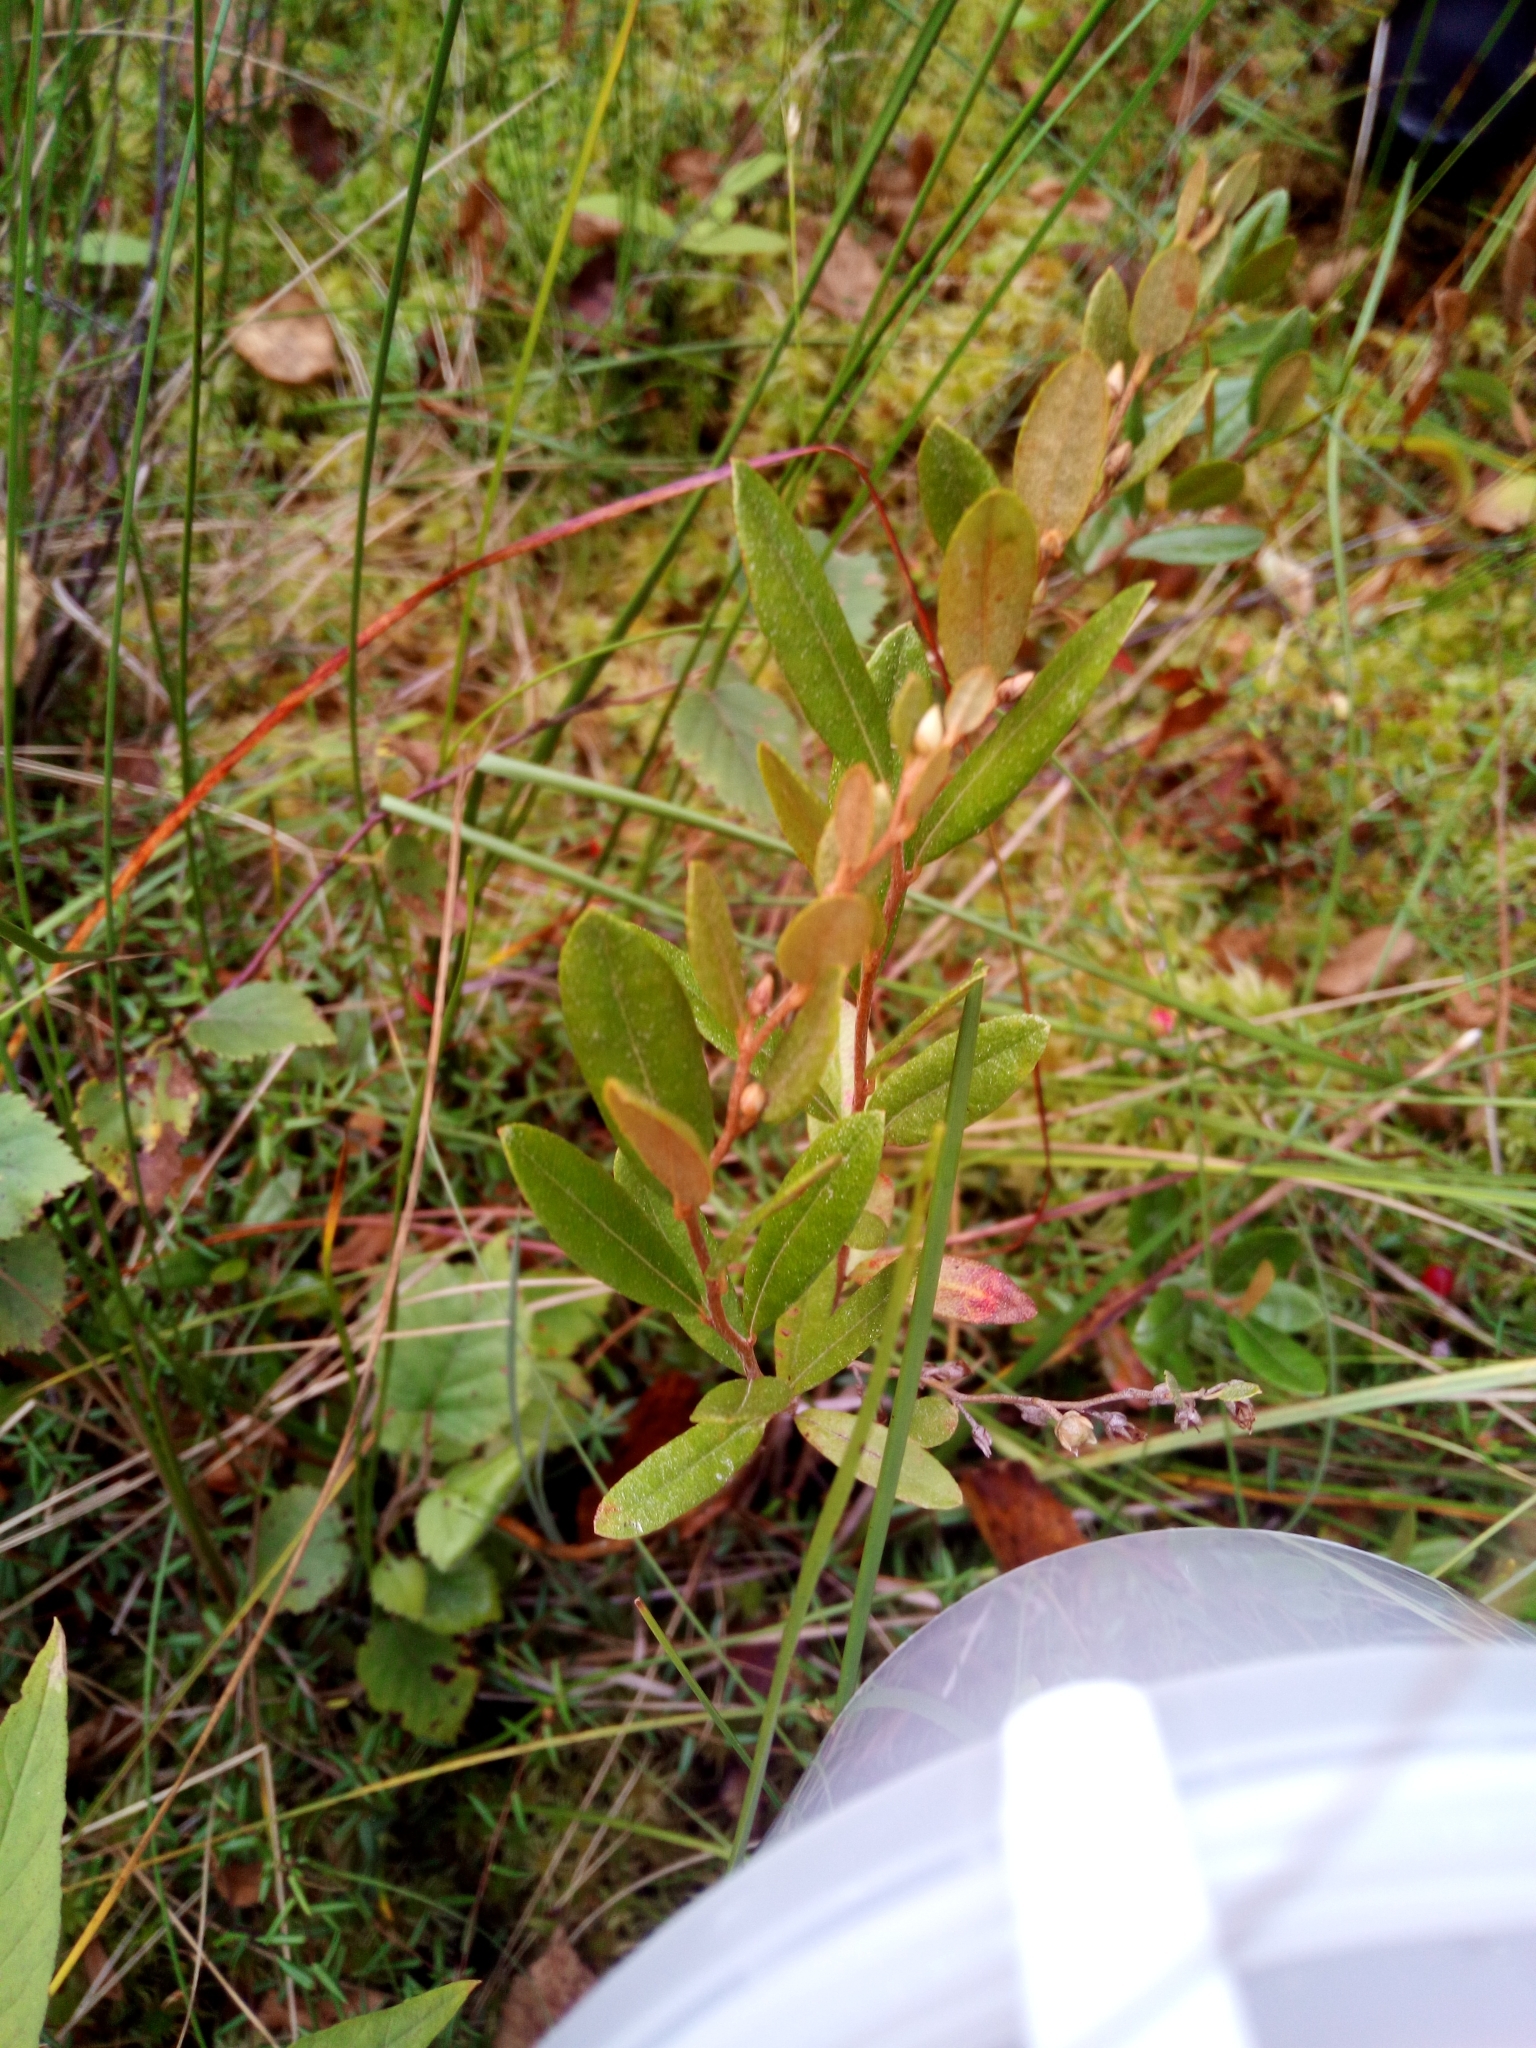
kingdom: Plantae
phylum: Tracheophyta
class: Magnoliopsida
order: Ericales
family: Ericaceae
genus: Chamaedaphne
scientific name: Chamaedaphne calyculata
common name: Leatherleaf
